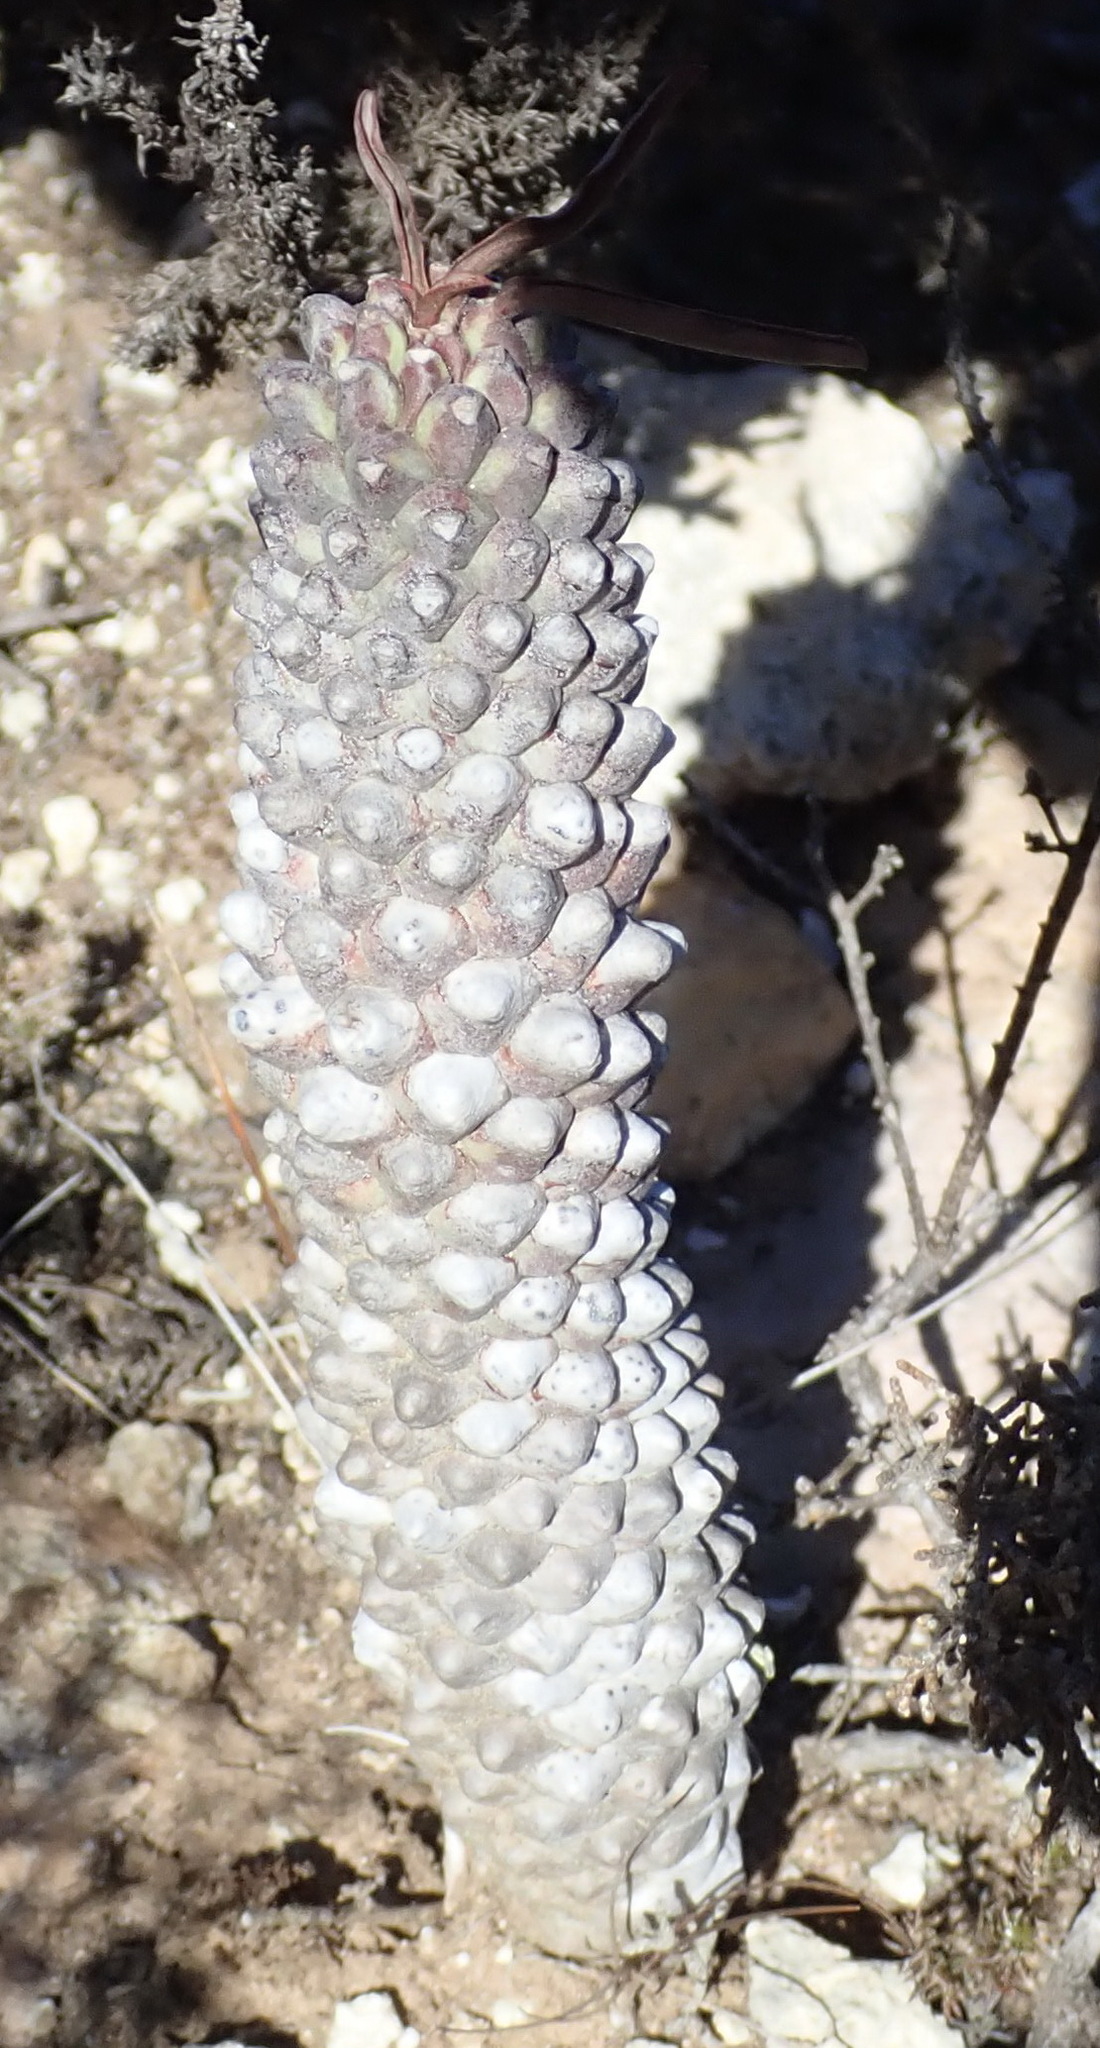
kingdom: Plantae
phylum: Tracheophyta
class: Magnoliopsida
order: Malpighiales
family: Euphorbiaceae
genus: Euphorbia
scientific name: Euphorbia clandestina
